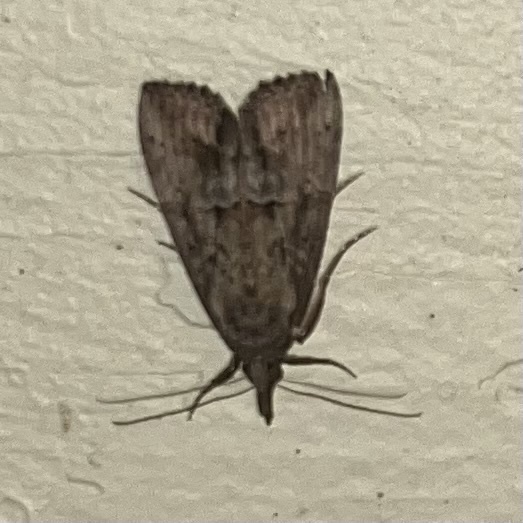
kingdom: Animalia
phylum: Arthropoda
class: Insecta
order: Lepidoptera
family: Erebidae
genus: Hypena
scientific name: Hypena scabra
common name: Green cloverworm
